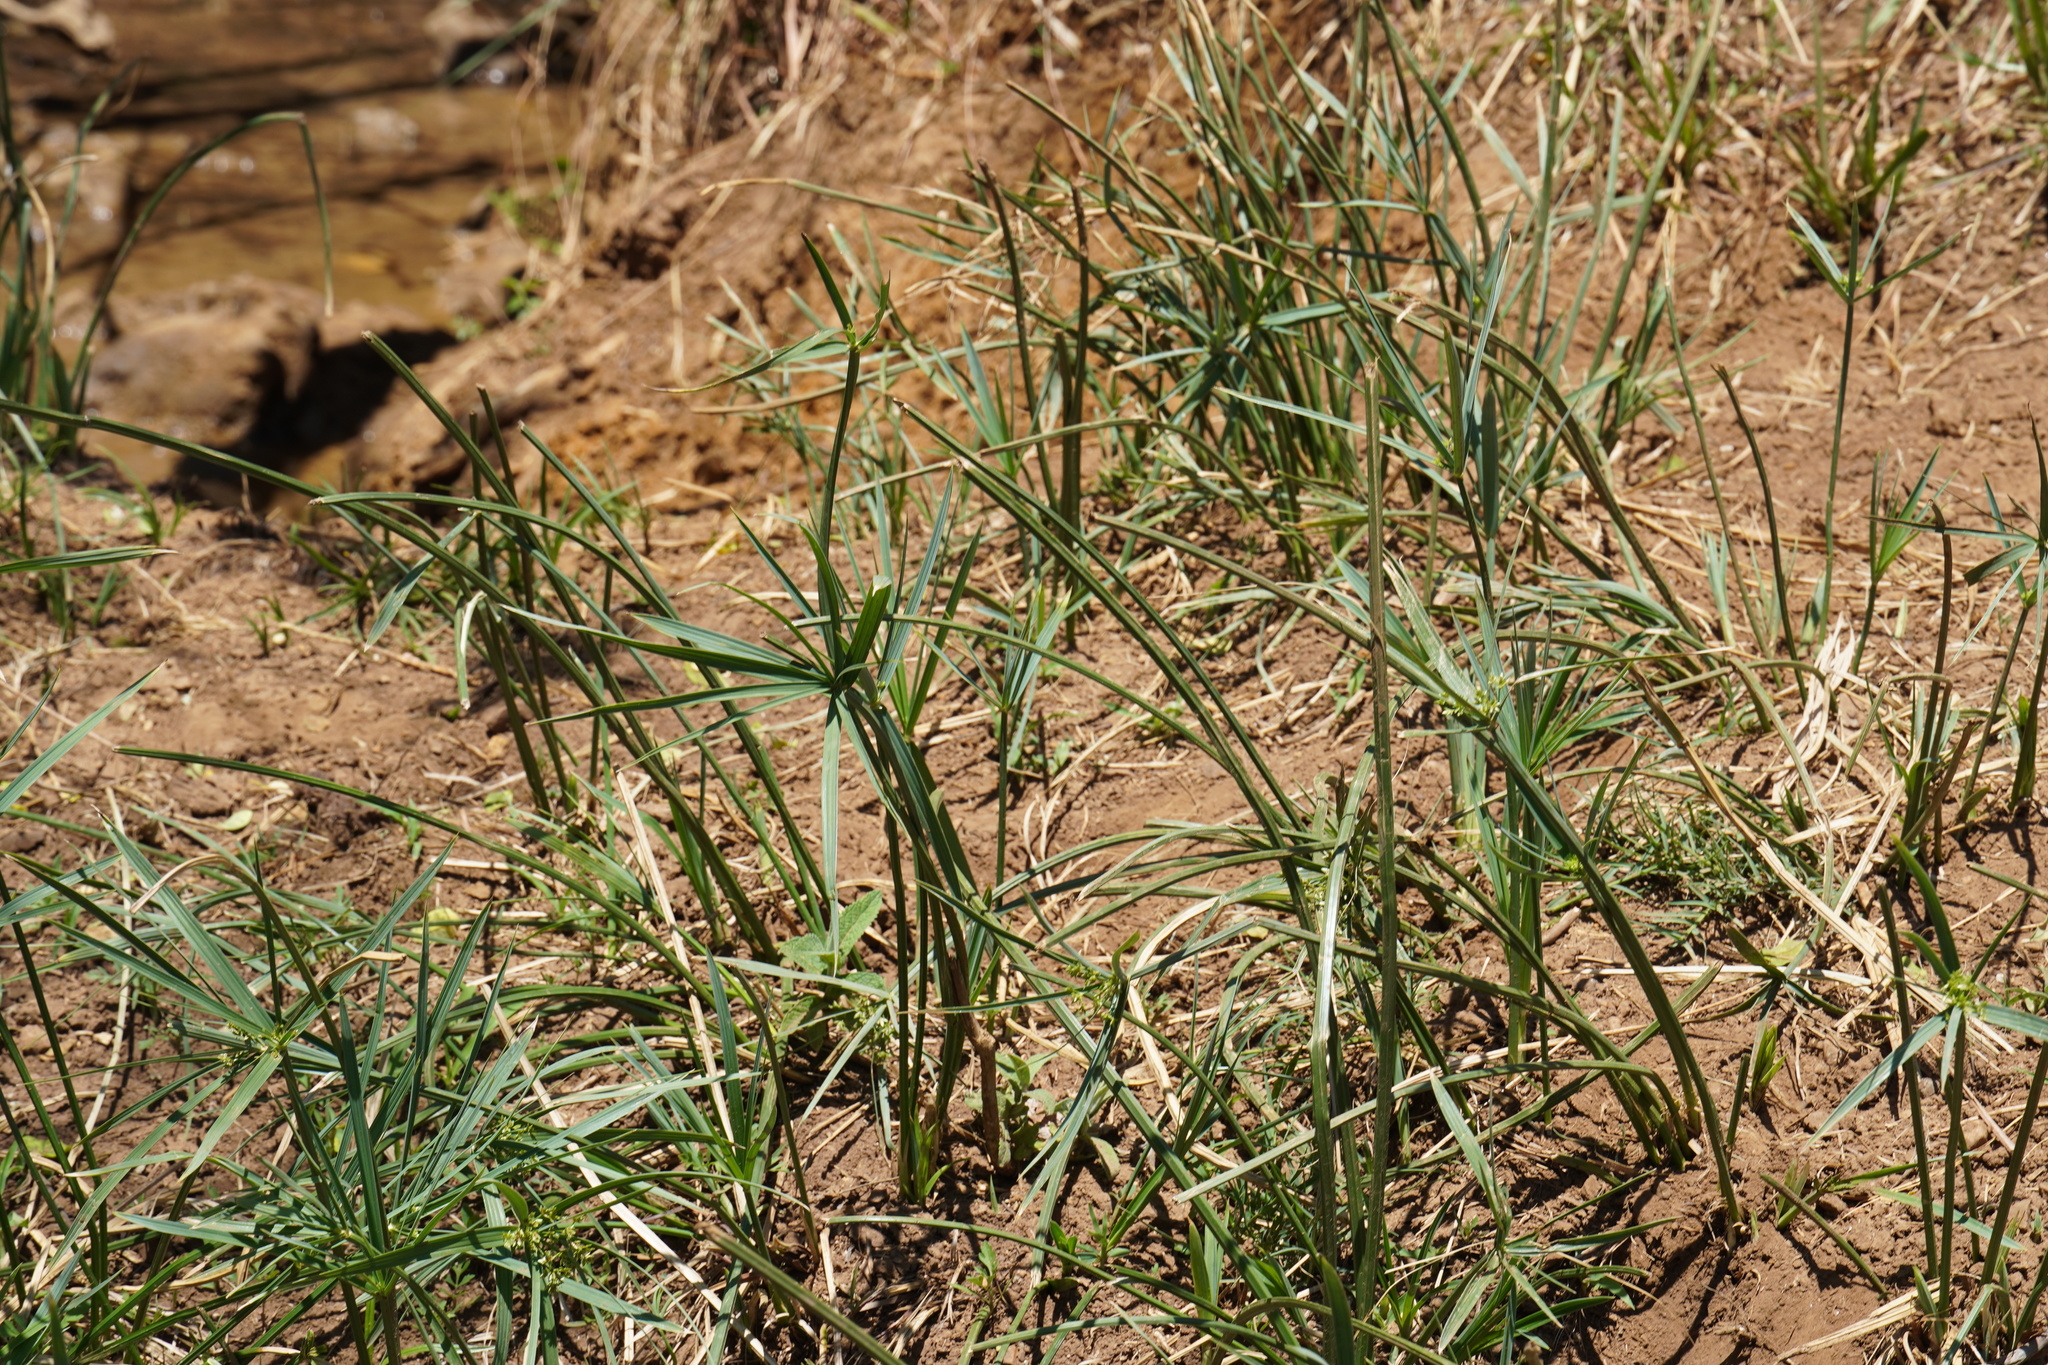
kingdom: Plantae
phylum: Tracheophyta
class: Liliopsida
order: Poales
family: Cyperaceae
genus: Cyperus
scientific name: Cyperus sexangularis
